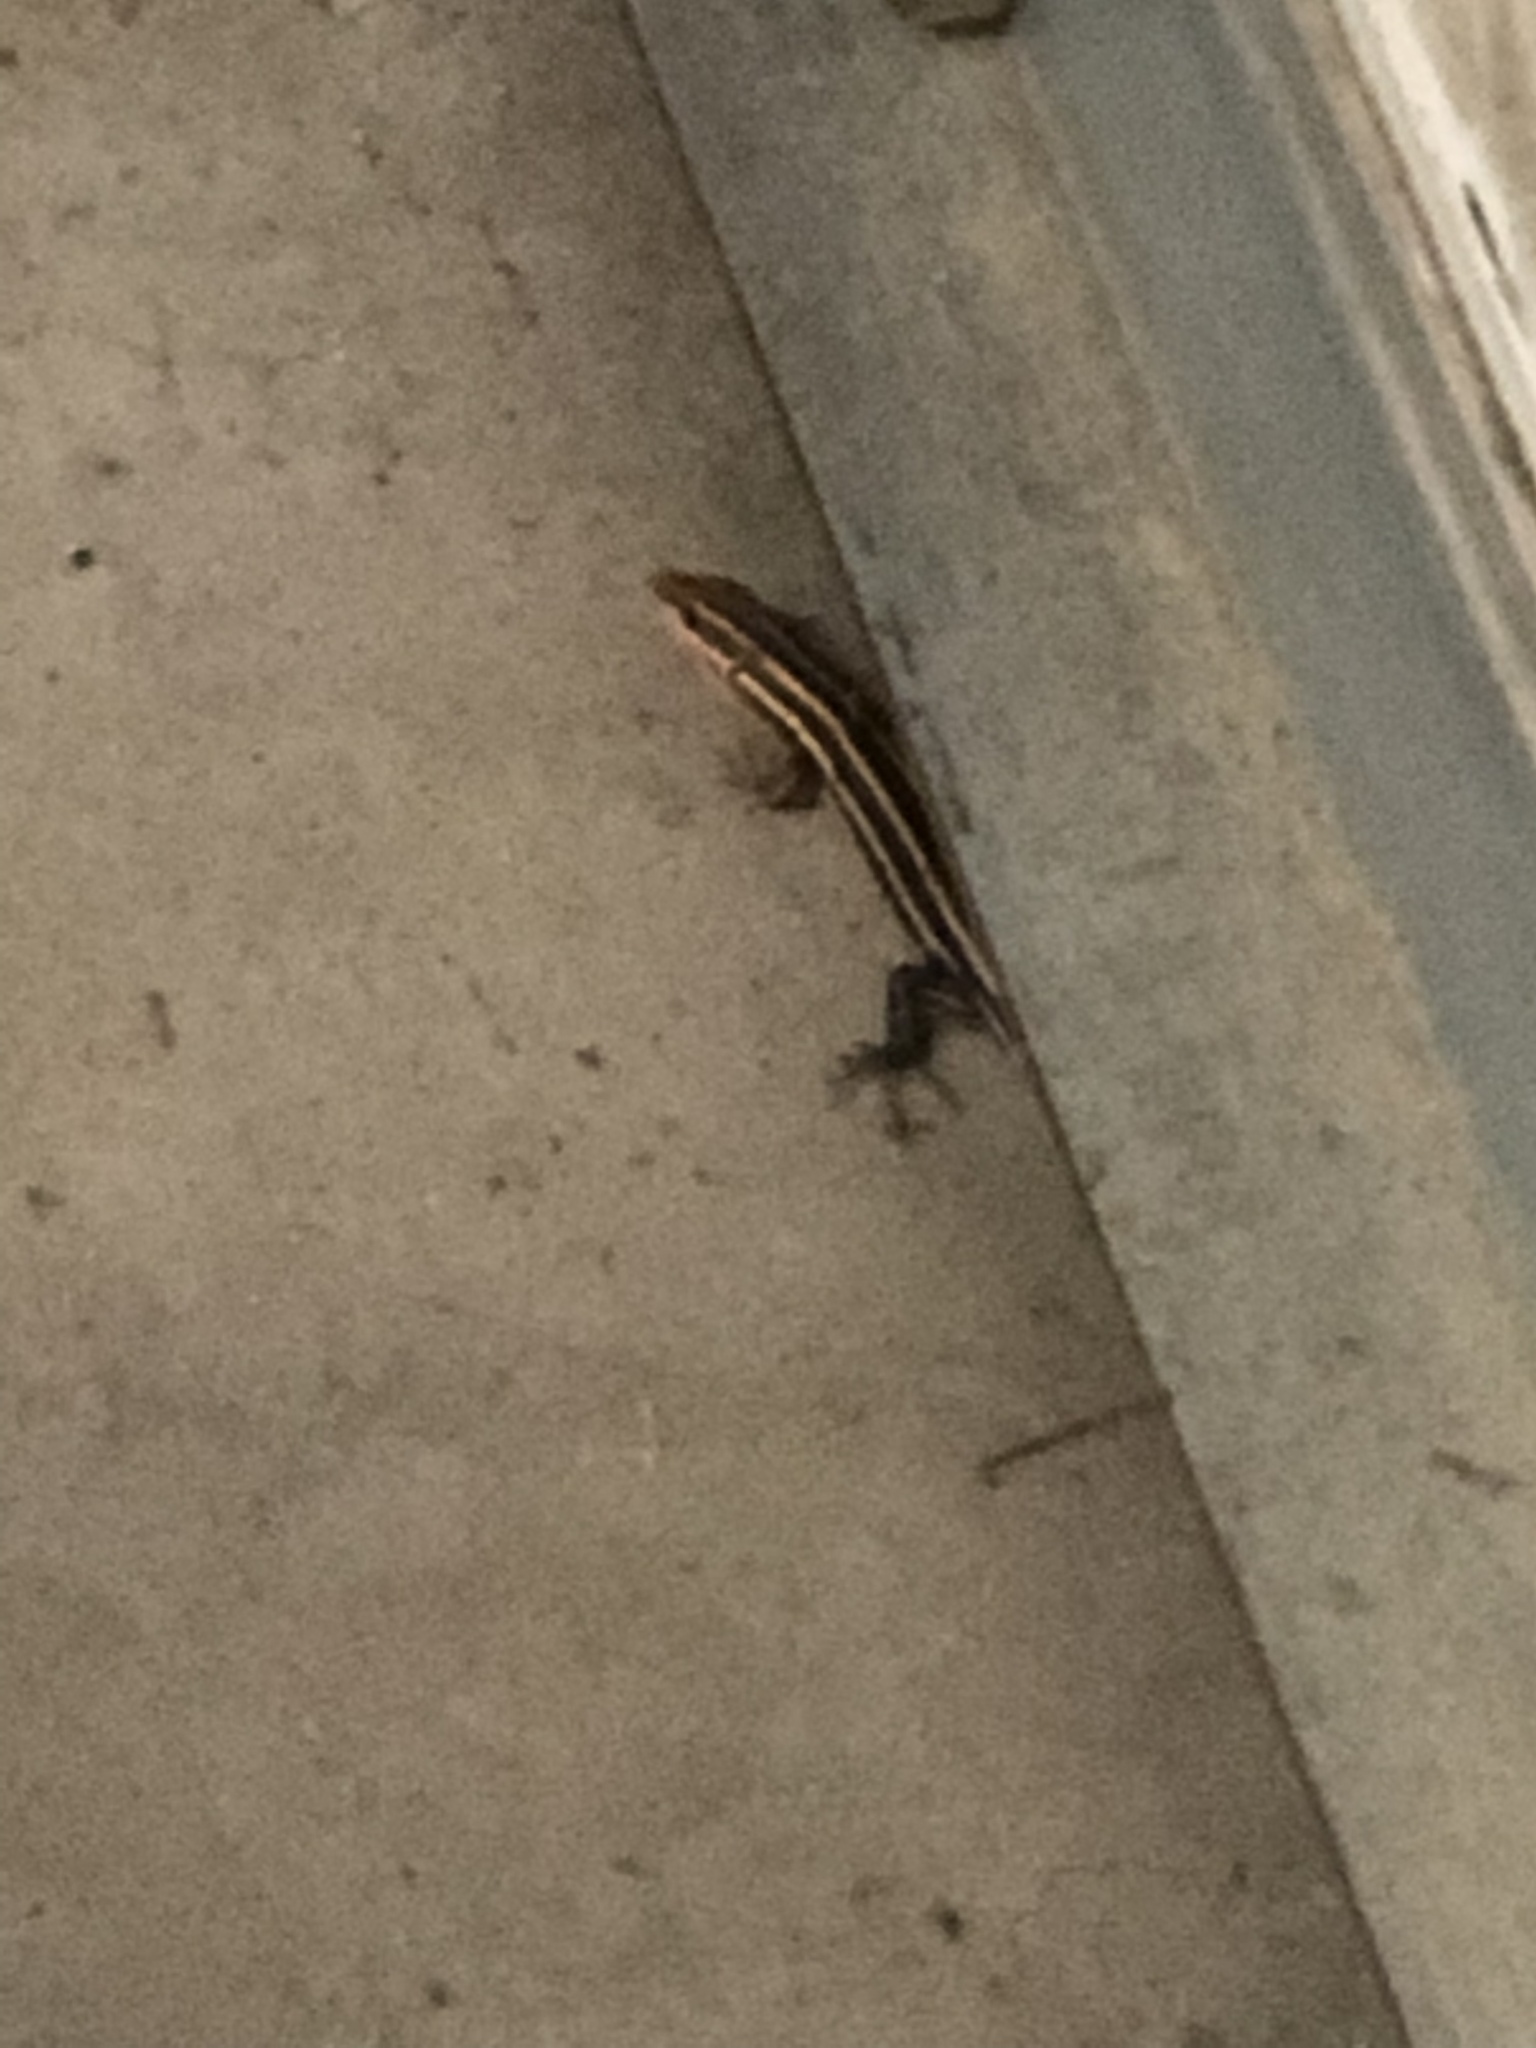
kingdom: Animalia
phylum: Chordata
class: Squamata
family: Scincidae
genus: Plestiodon
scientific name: Plestiodon laticeps
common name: Broadhead skink
